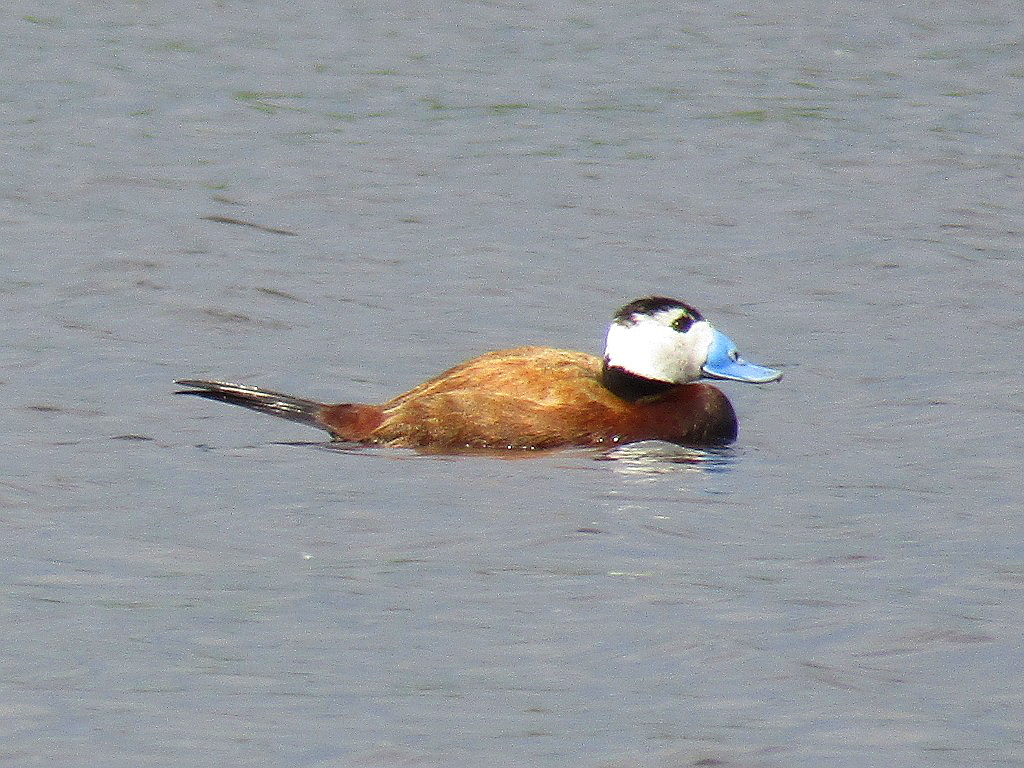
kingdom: Animalia
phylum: Chordata
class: Aves
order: Anseriformes
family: Anatidae
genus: Oxyura
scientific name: Oxyura leucocephala
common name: White-headed duck
